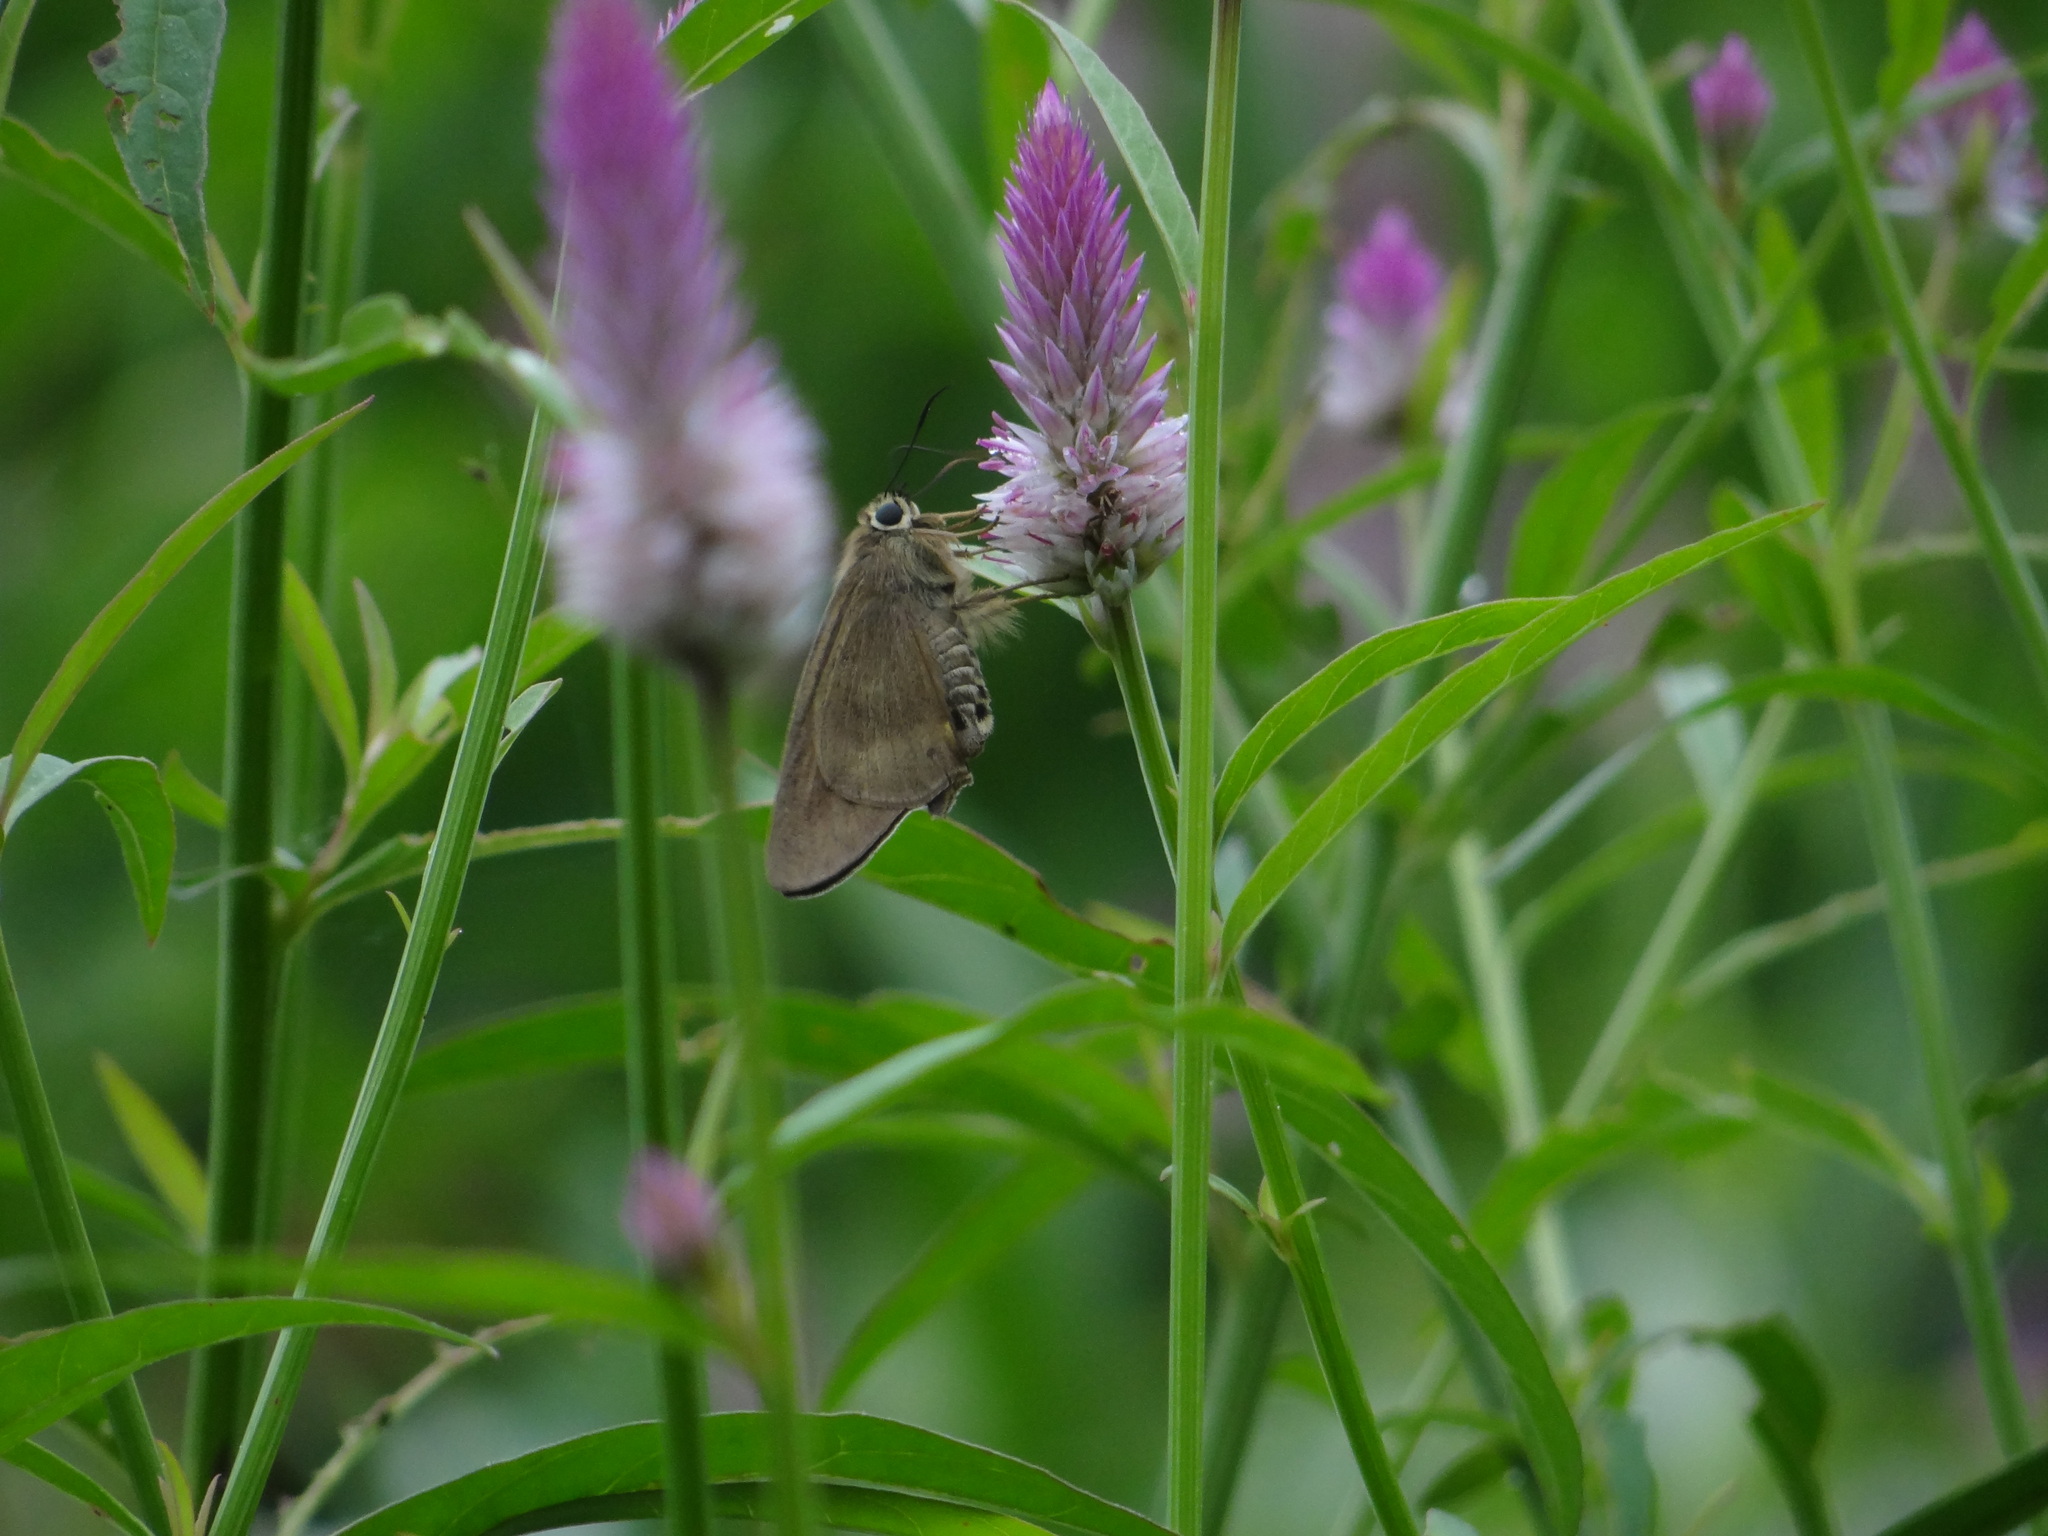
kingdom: Animalia
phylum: Arthropoda
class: Insecta
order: Lepidoptera
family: Hesperiidae
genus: Badamia
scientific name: Badamia exclamationis
